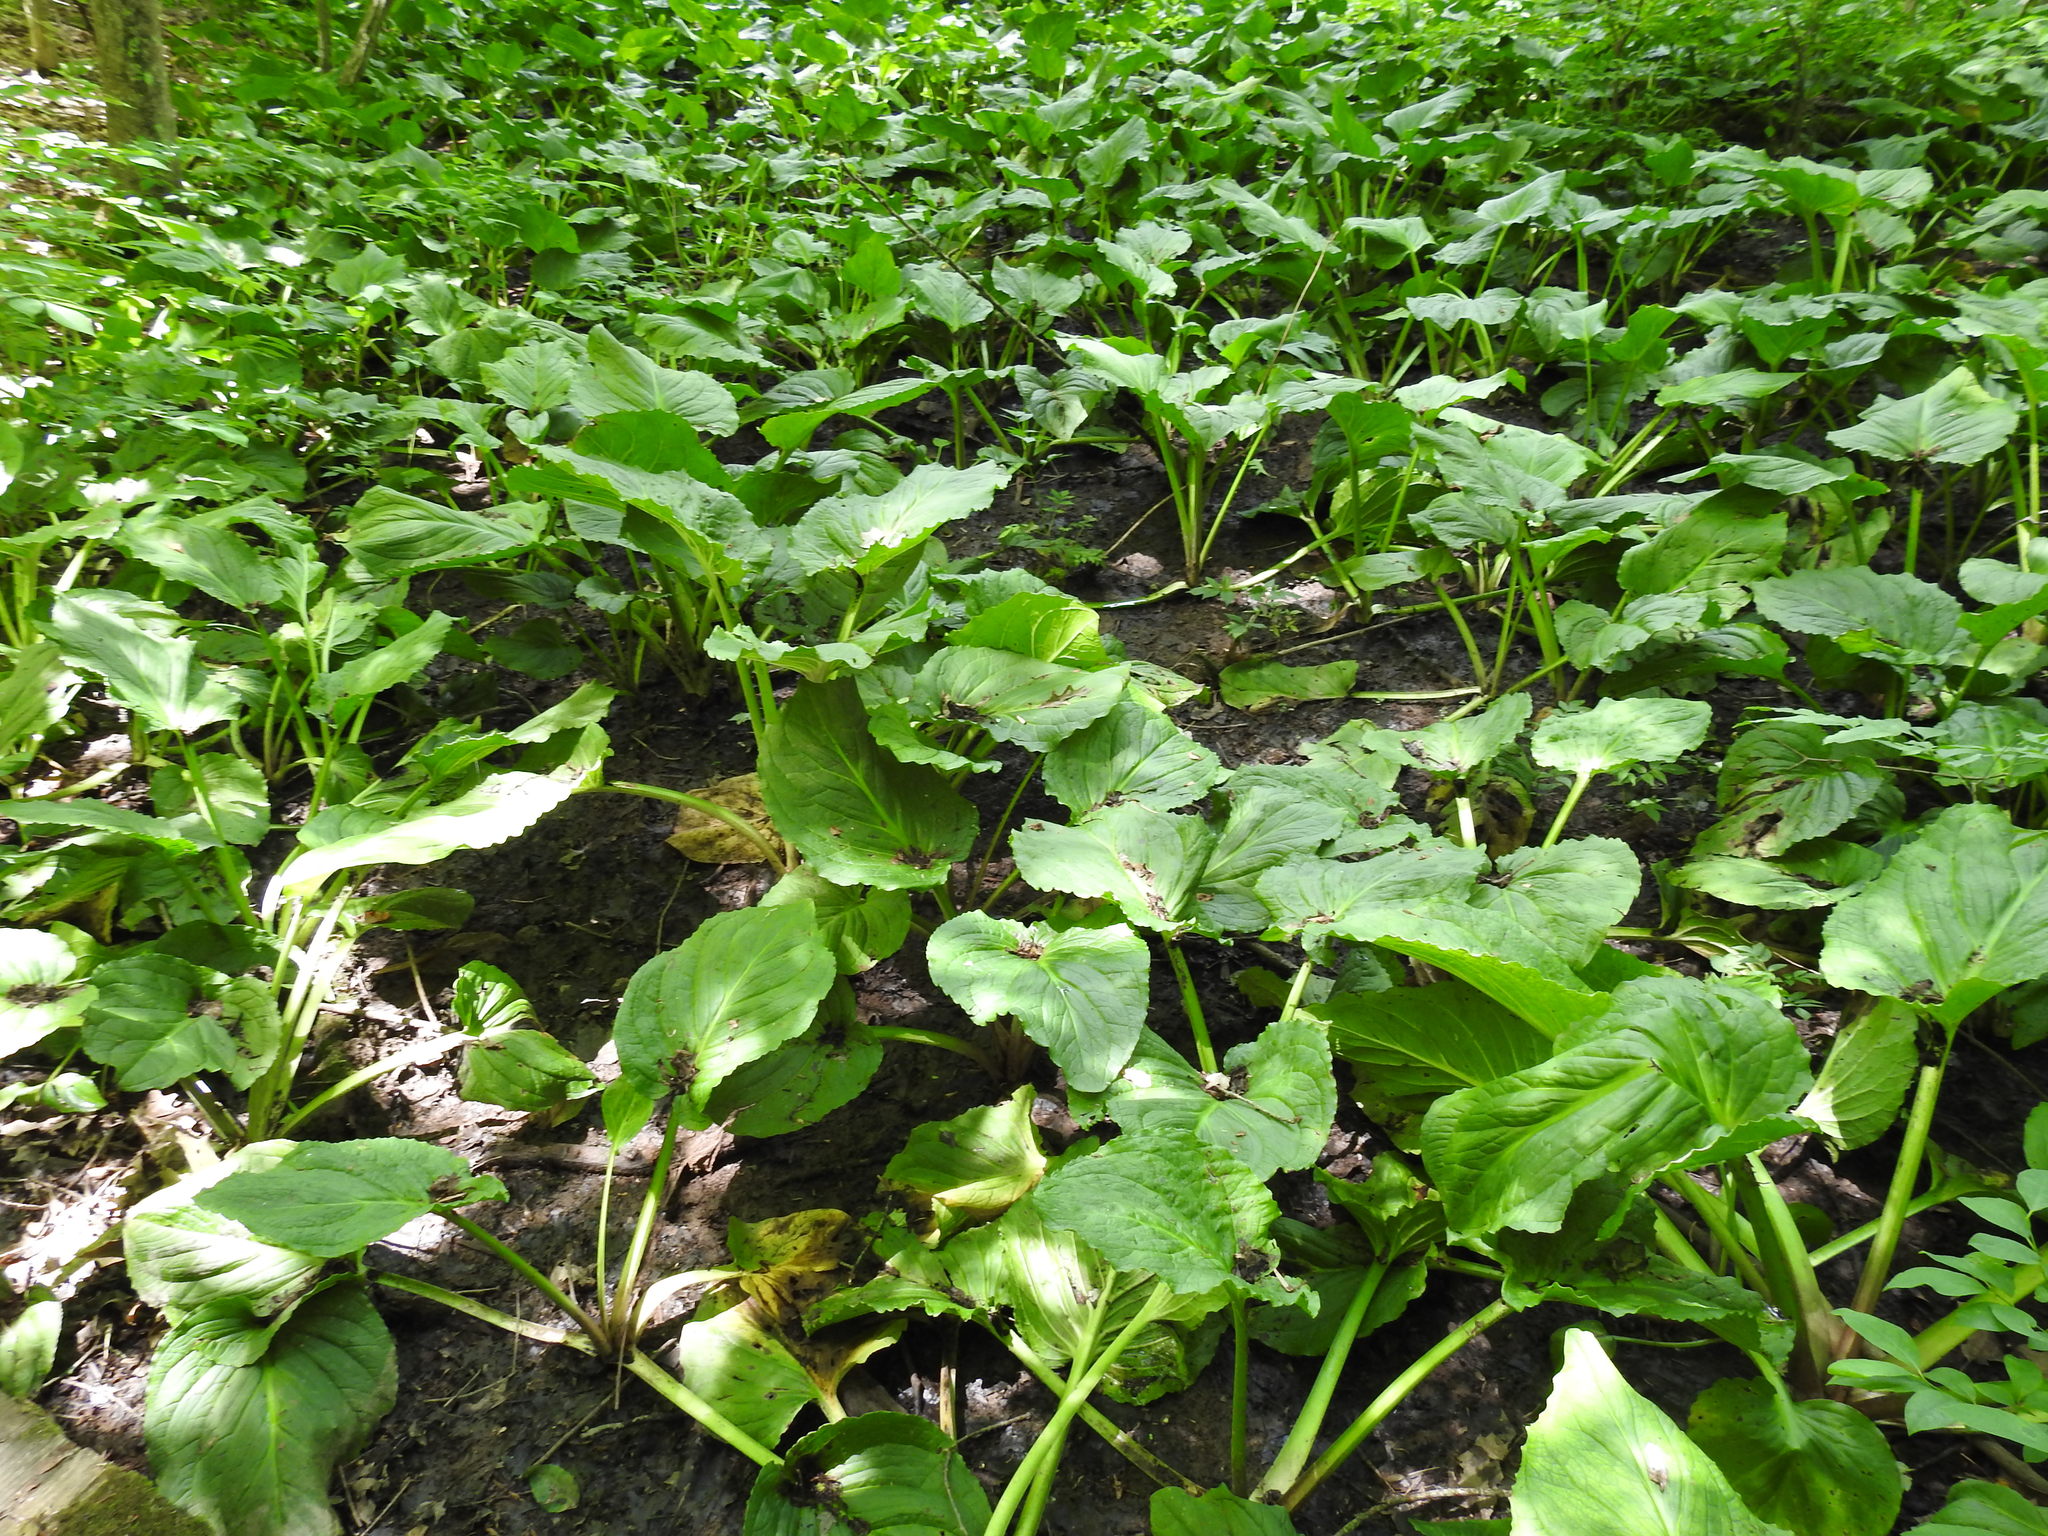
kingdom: Plantae
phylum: Tracheophyta
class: Liliopsida
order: Alismatales
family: Araceae
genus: Symplocarpus
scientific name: Symplocarpus foetidus
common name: Eastern skunk cabbage
